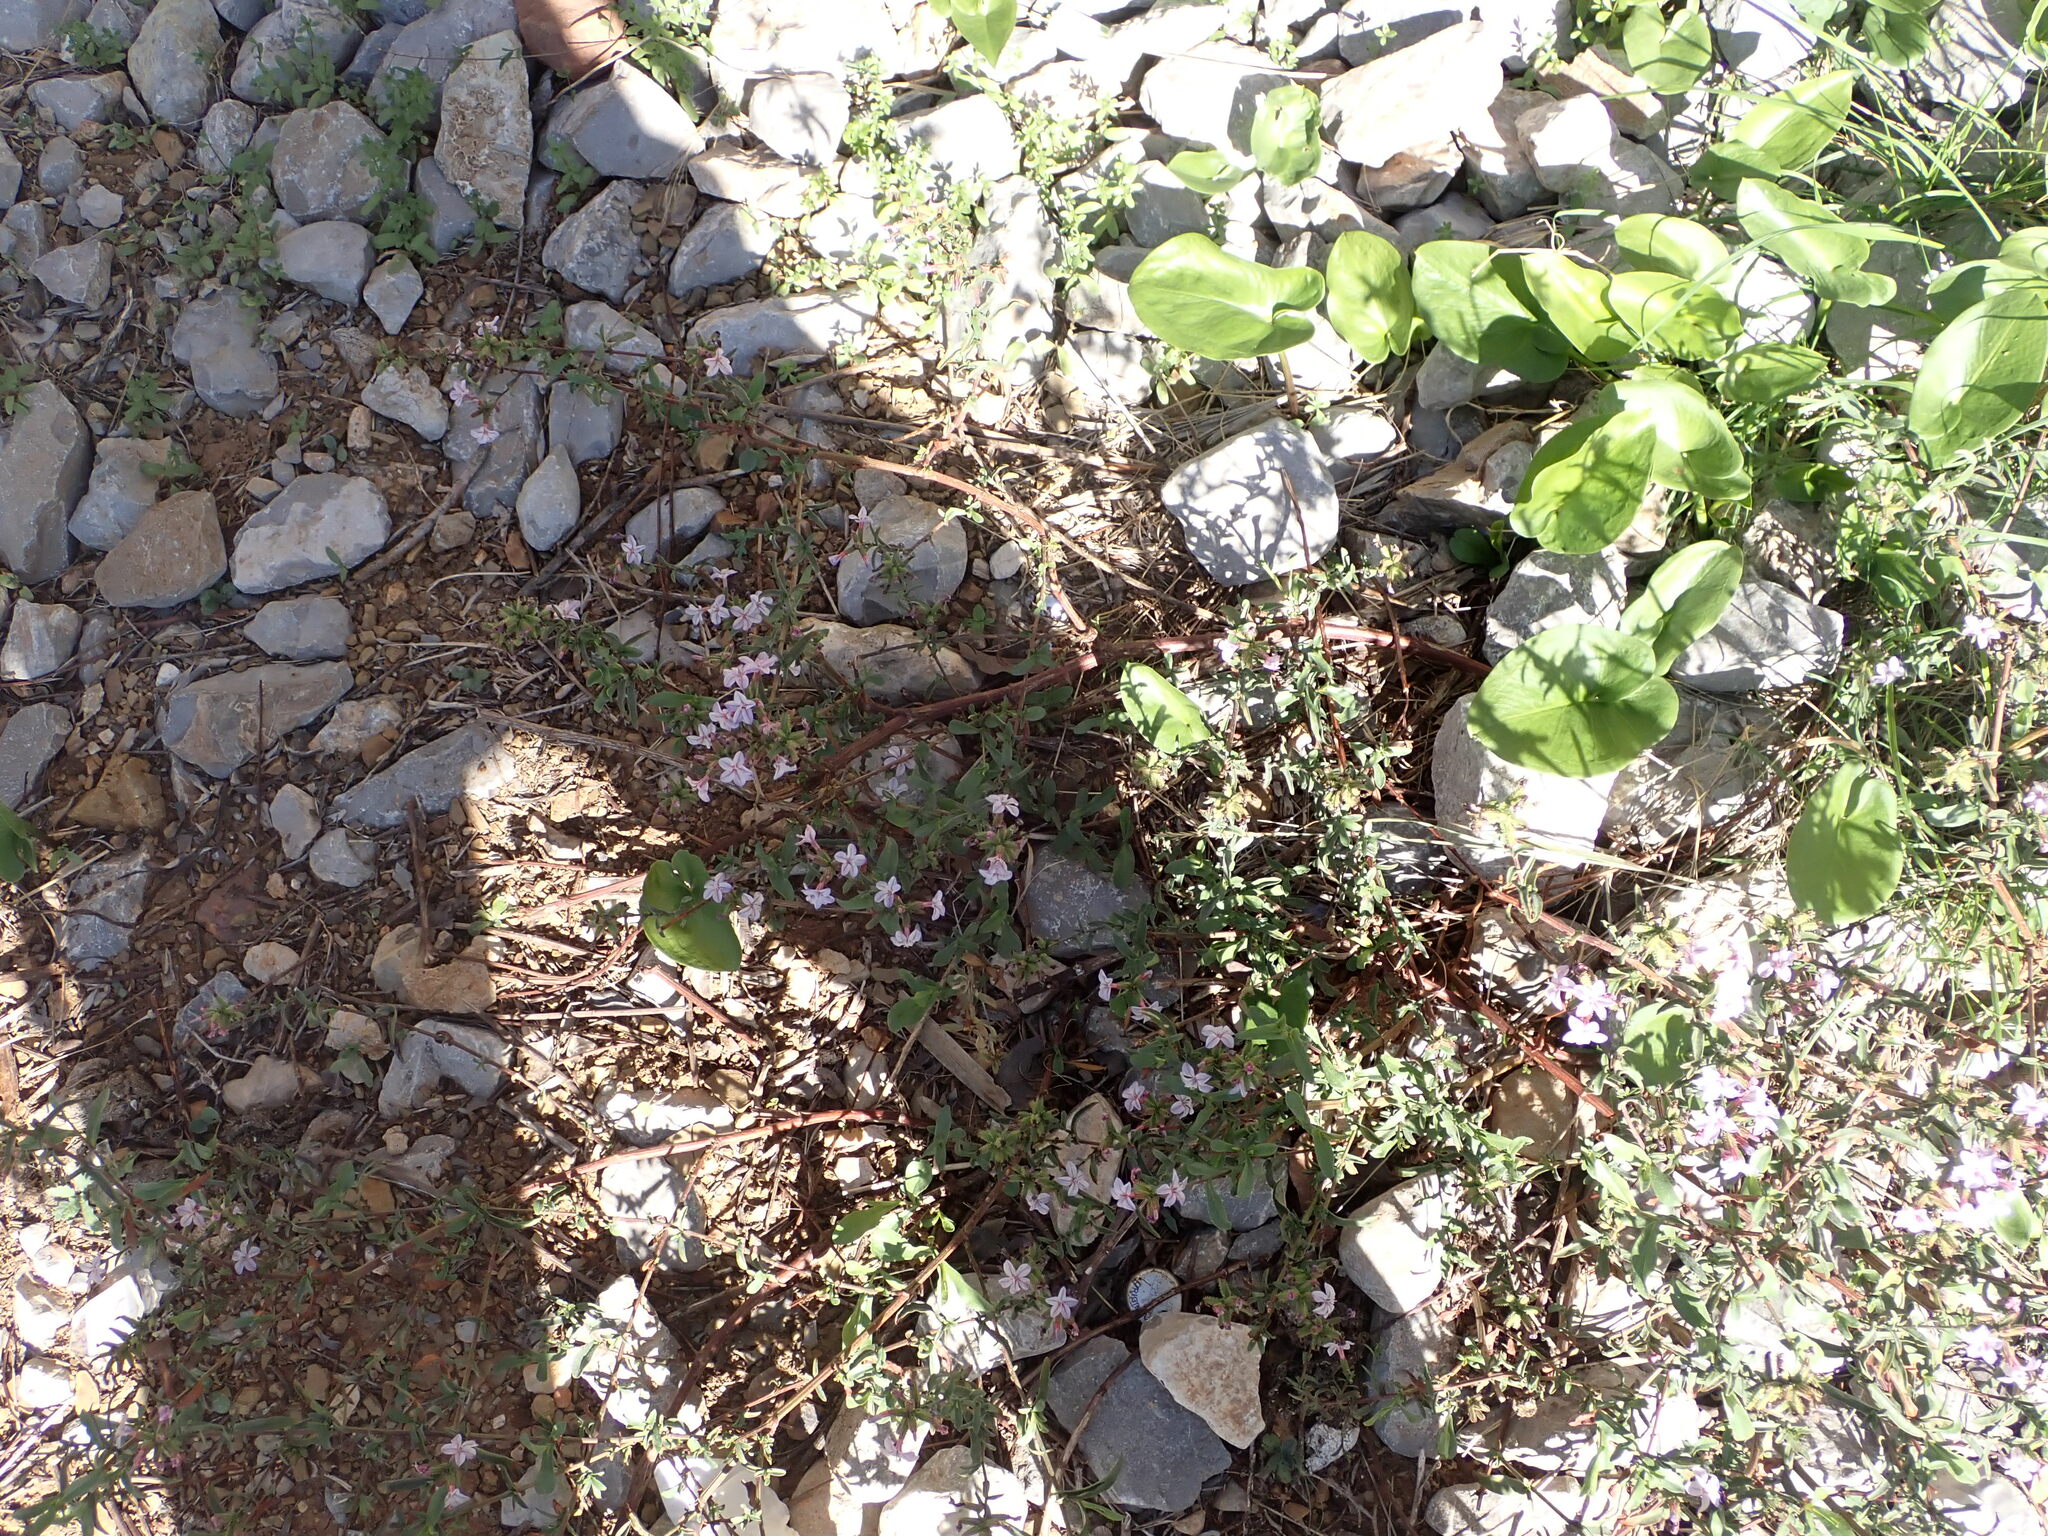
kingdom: Plantae
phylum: Tracheophyta
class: Magnoliopsida
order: Caryophyllales
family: Plumbaginaceae
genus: Plumbago
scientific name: Plumbago europaea
